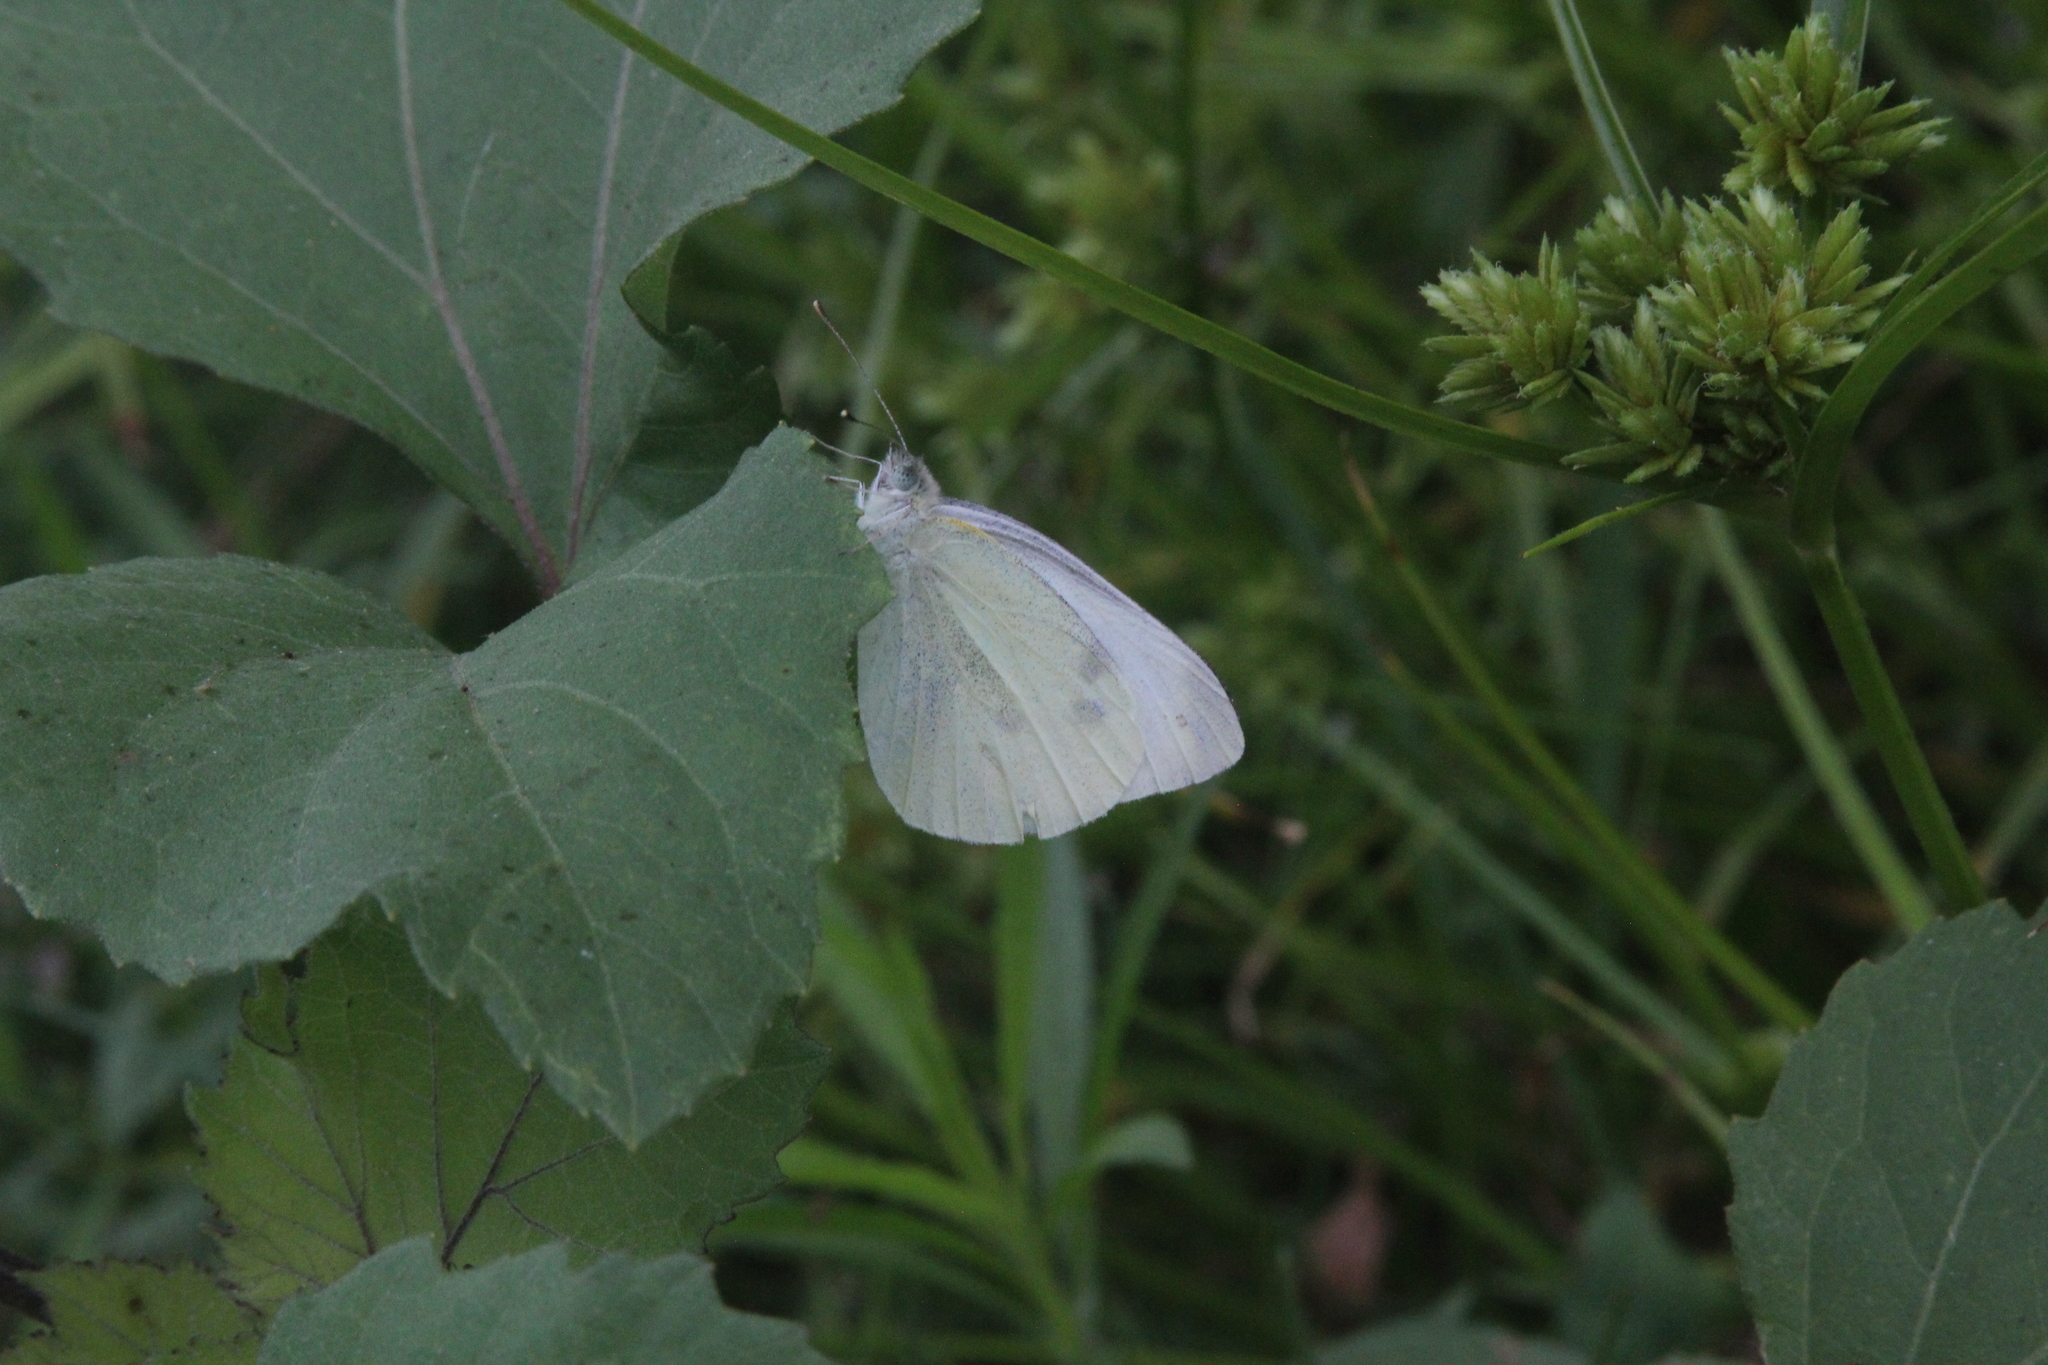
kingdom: Animalia
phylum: Arthropoda
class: Insecta
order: Lepidoptera
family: Pieridae
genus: Pieris
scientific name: Pieris rapae
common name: Small white
